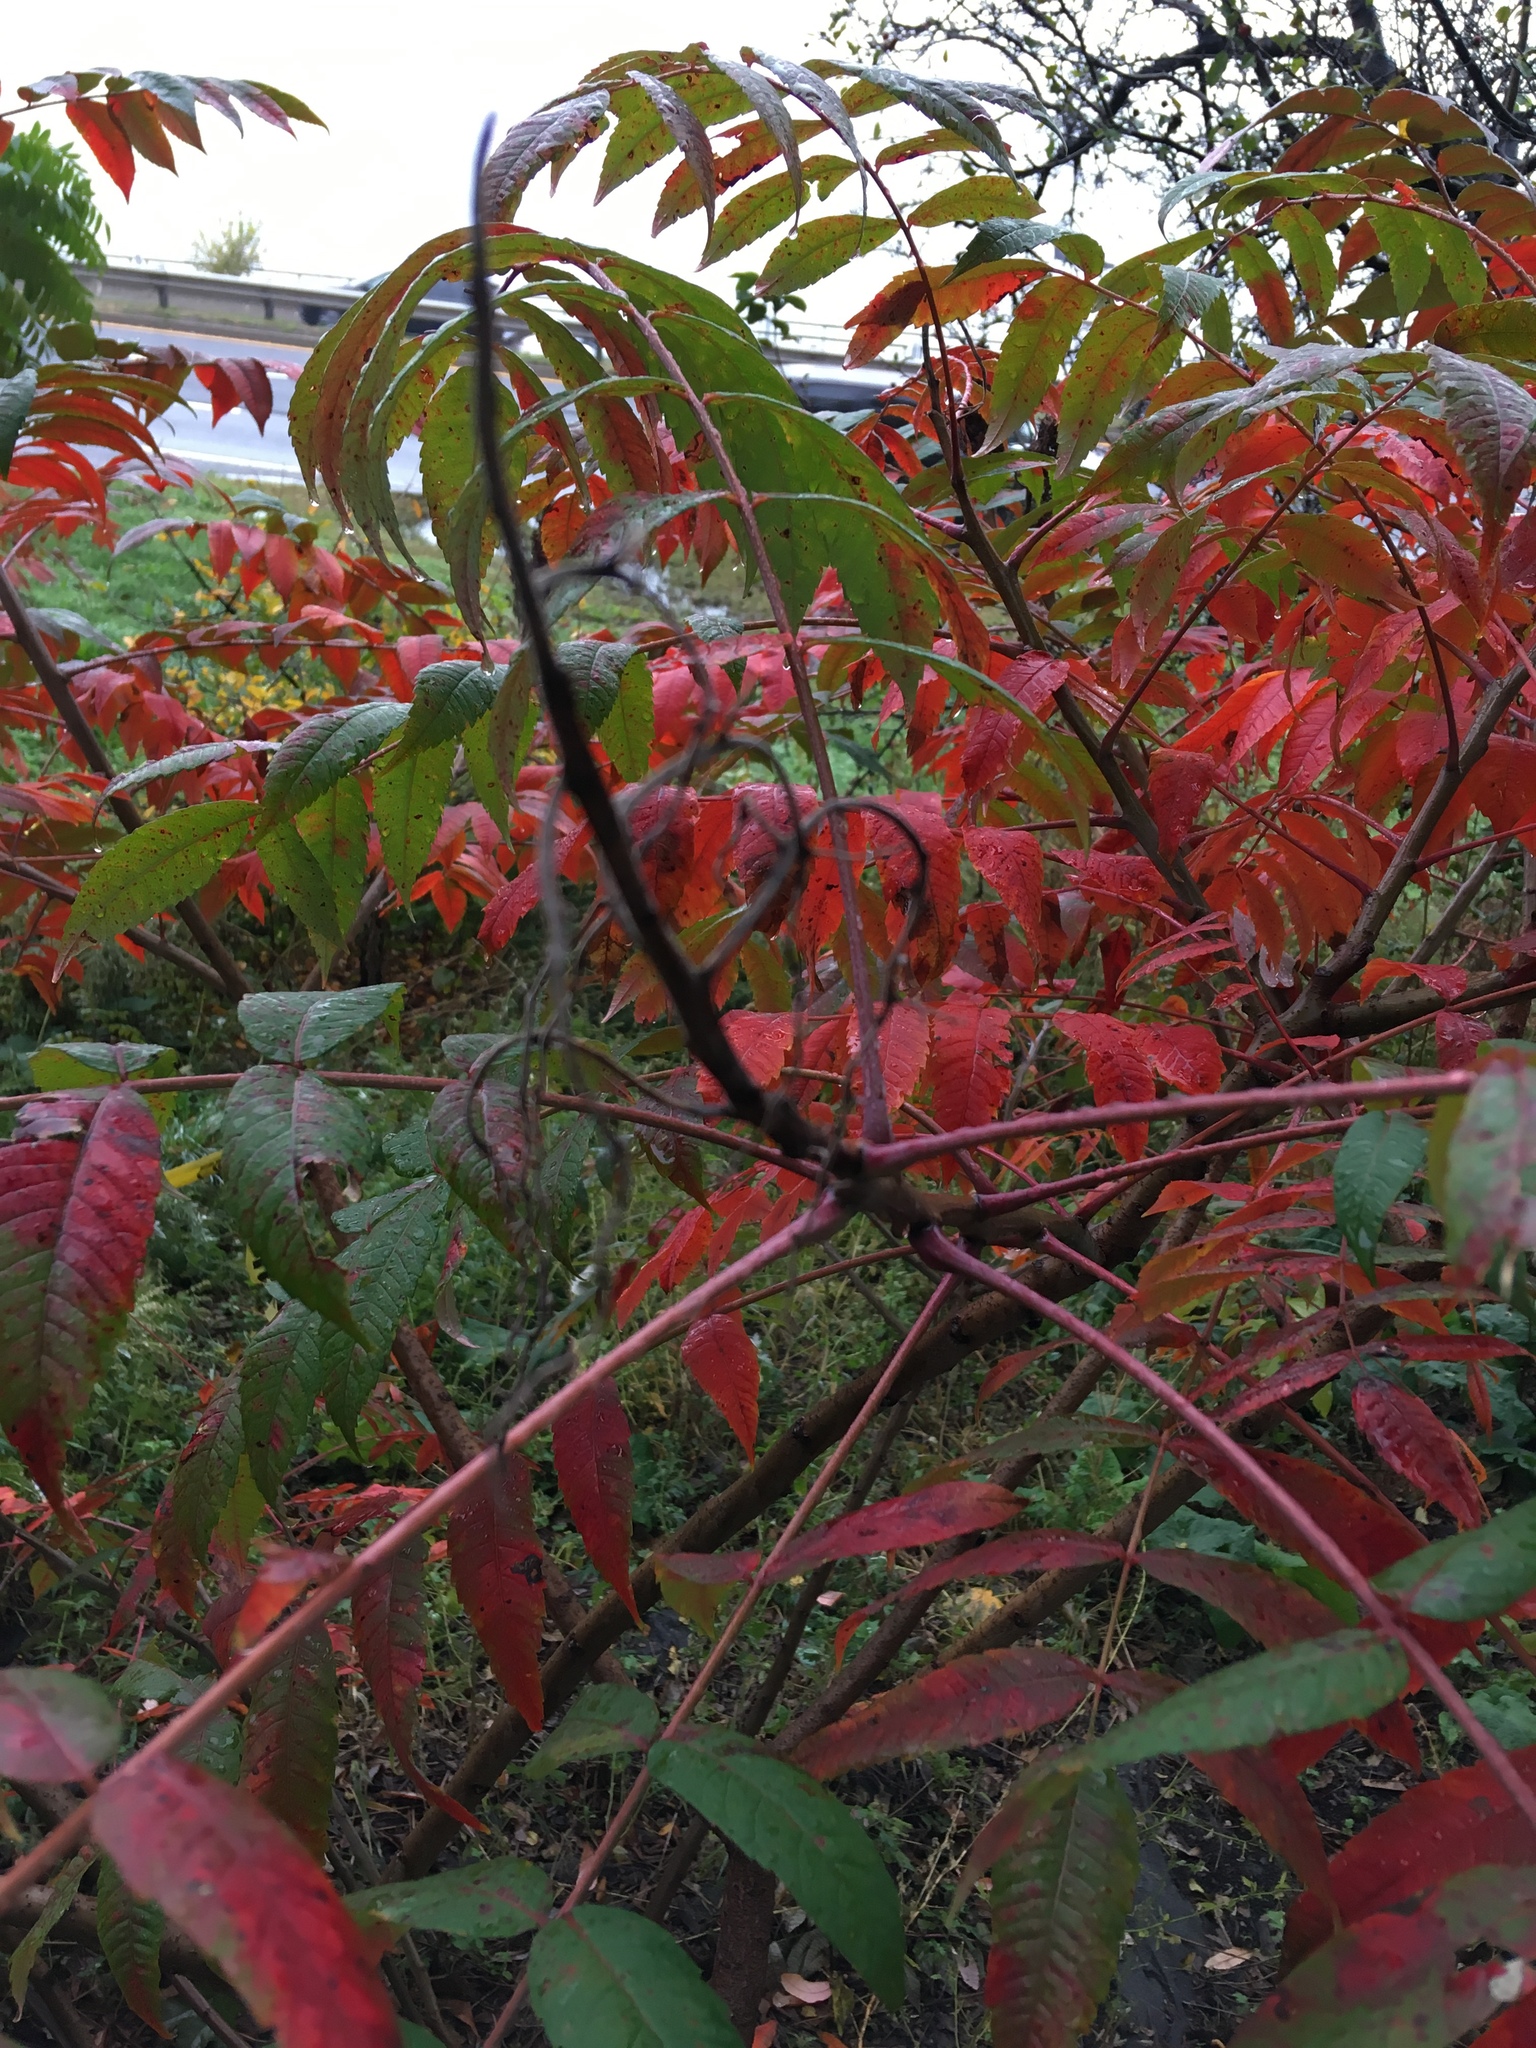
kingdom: Plantae
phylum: Tracheophyta
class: Magnoliopsida
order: Sapindales
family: Anacardiaceae
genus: Rhus
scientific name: Rhus glabra
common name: Scarlet sumac
